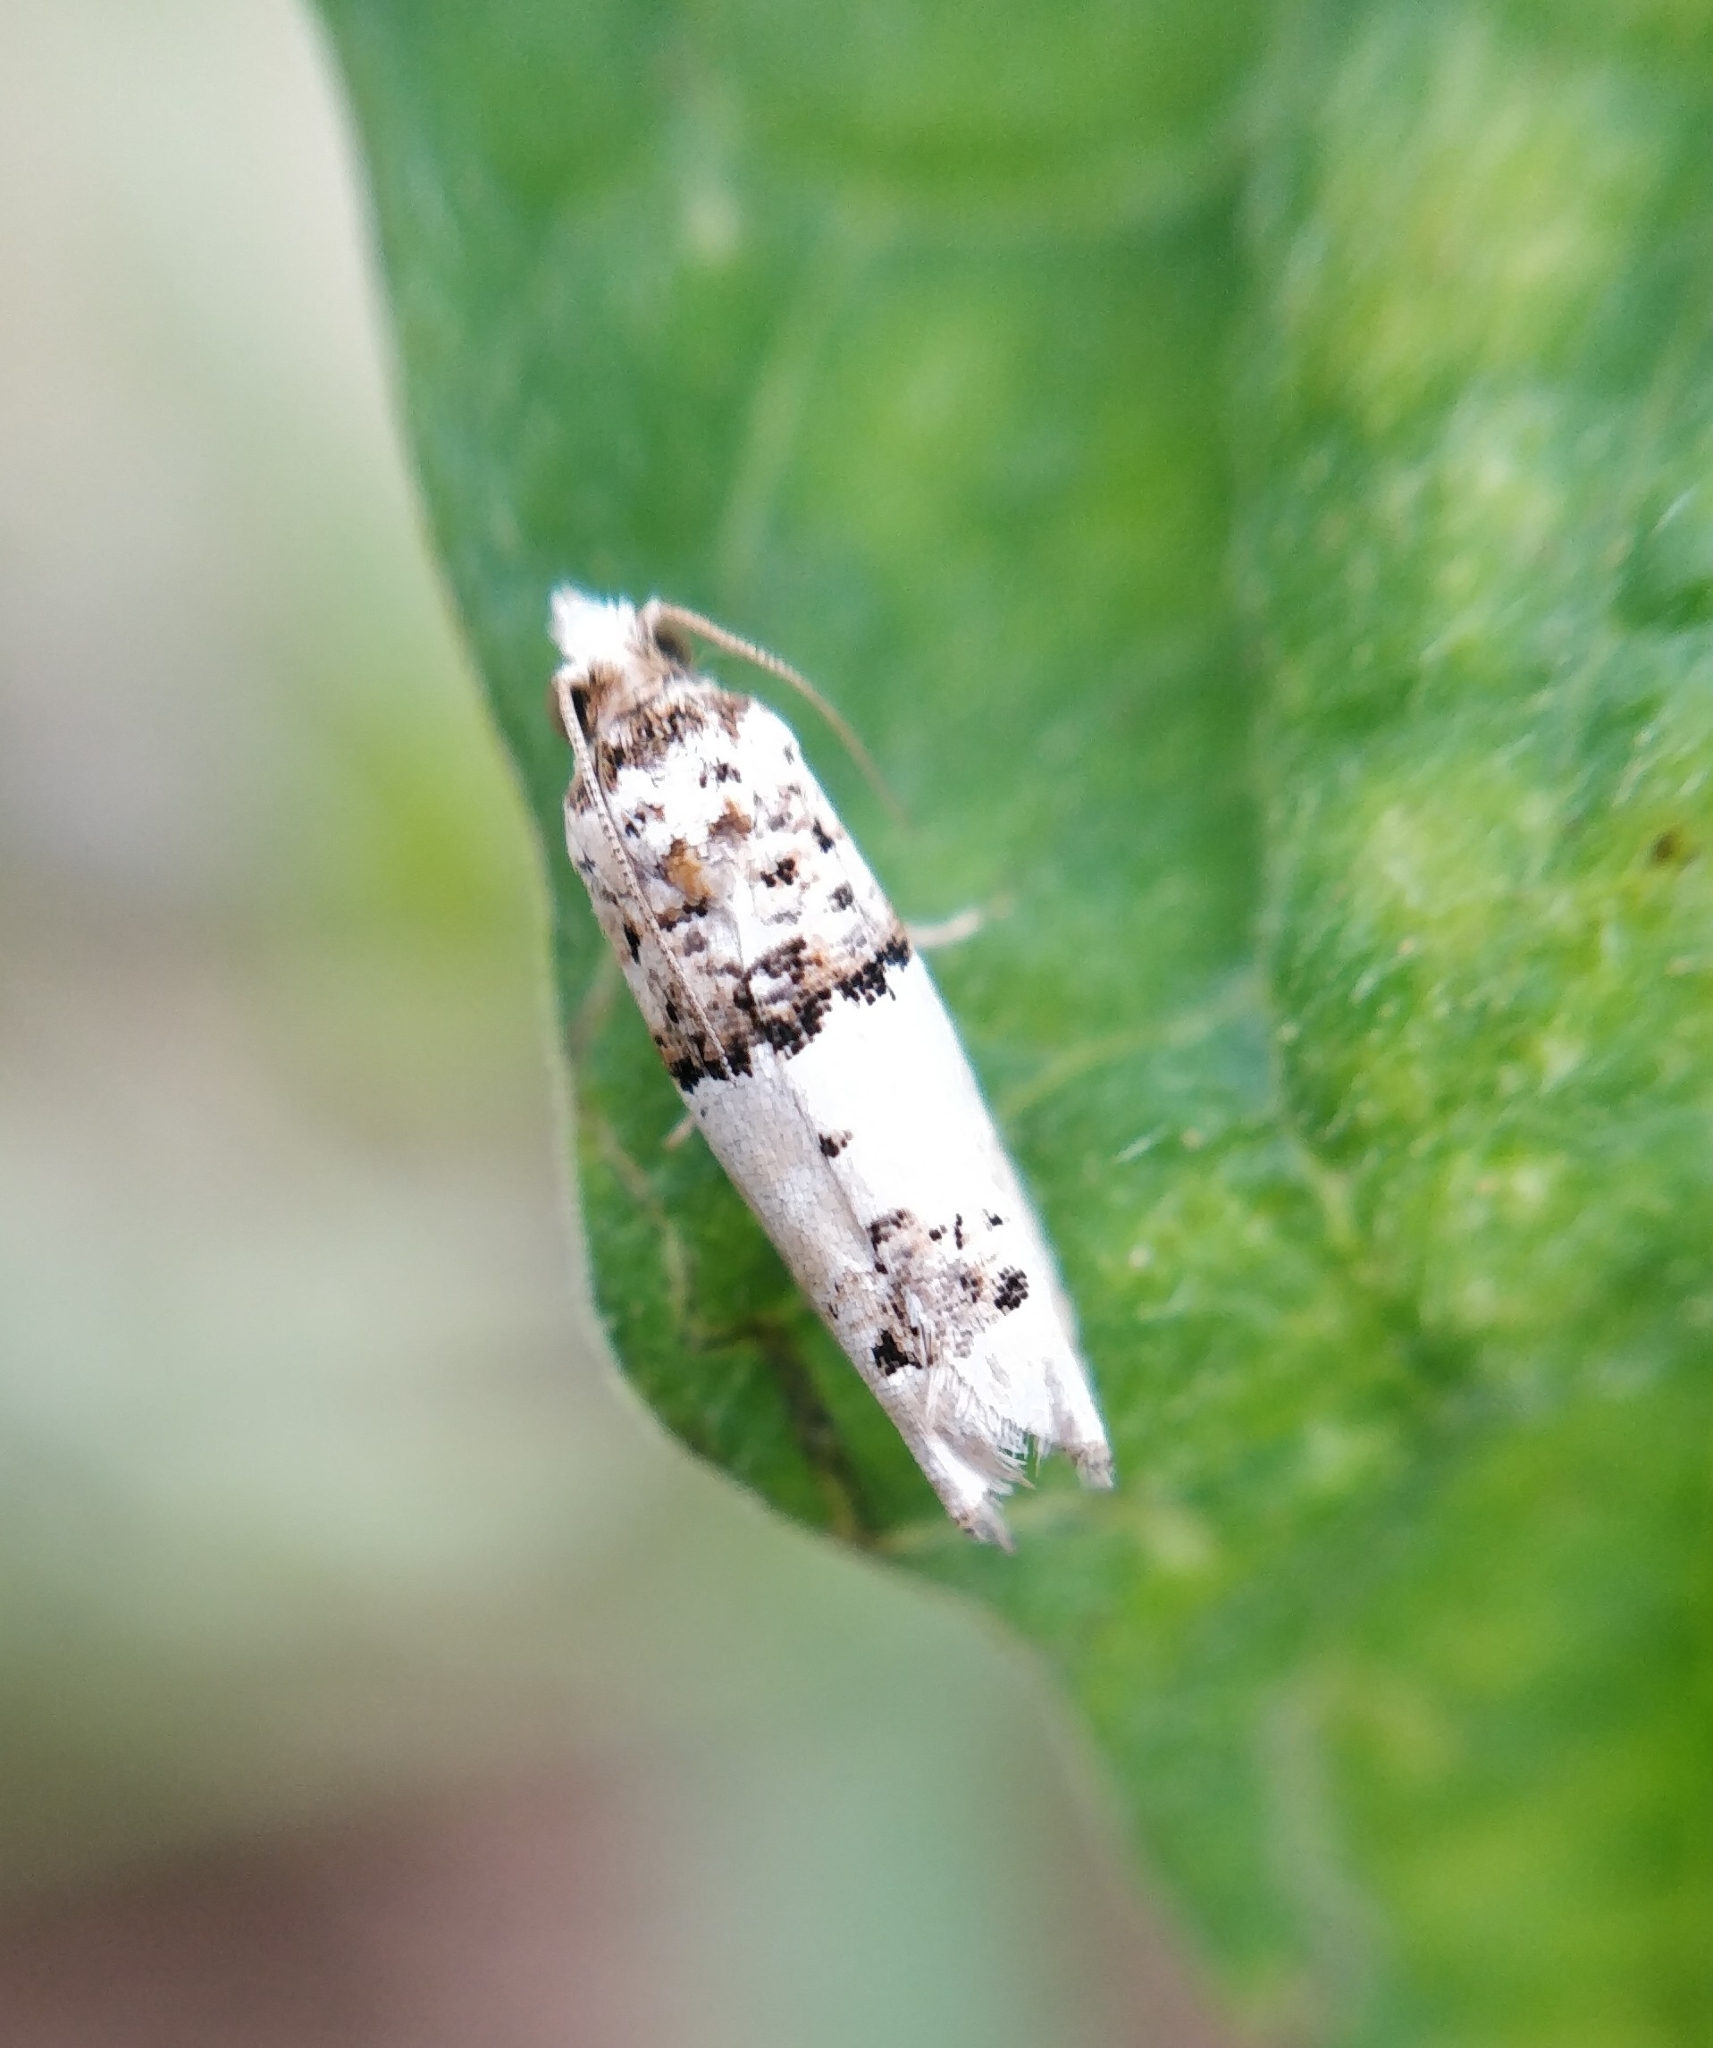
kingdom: Animalia
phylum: Arthropoda
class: Insecta
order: Lepidoptera
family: Tortricidae
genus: Epinotia
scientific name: Epinotia thapsiana
